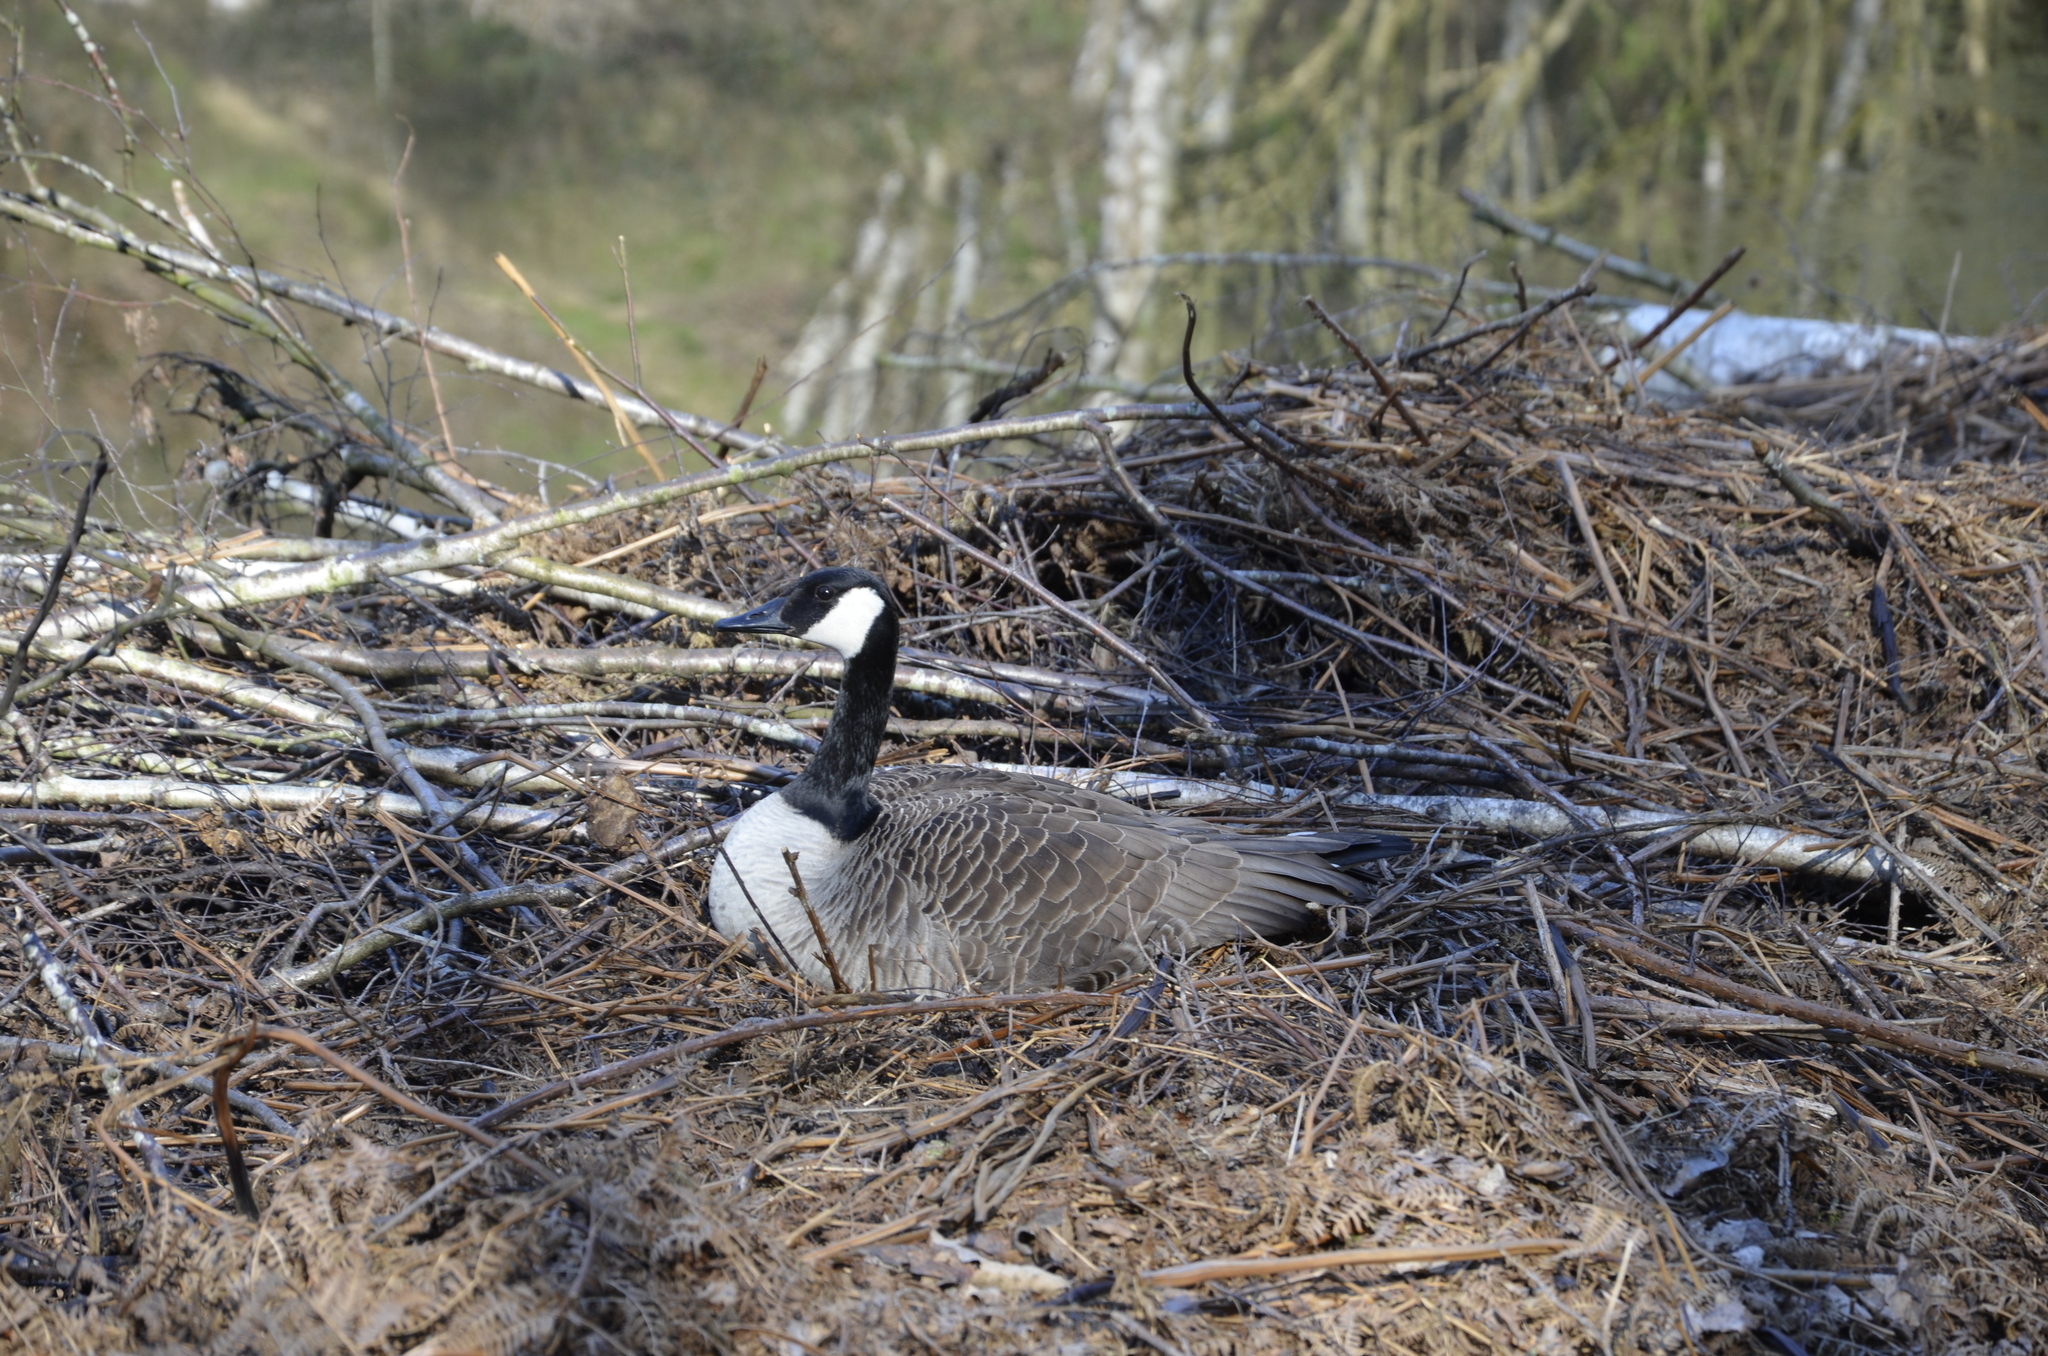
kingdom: Animalia
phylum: Chordata
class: Aves
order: Anseriformes
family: Anatidae
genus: Branta
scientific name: Branta canadensis
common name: Canada goose
